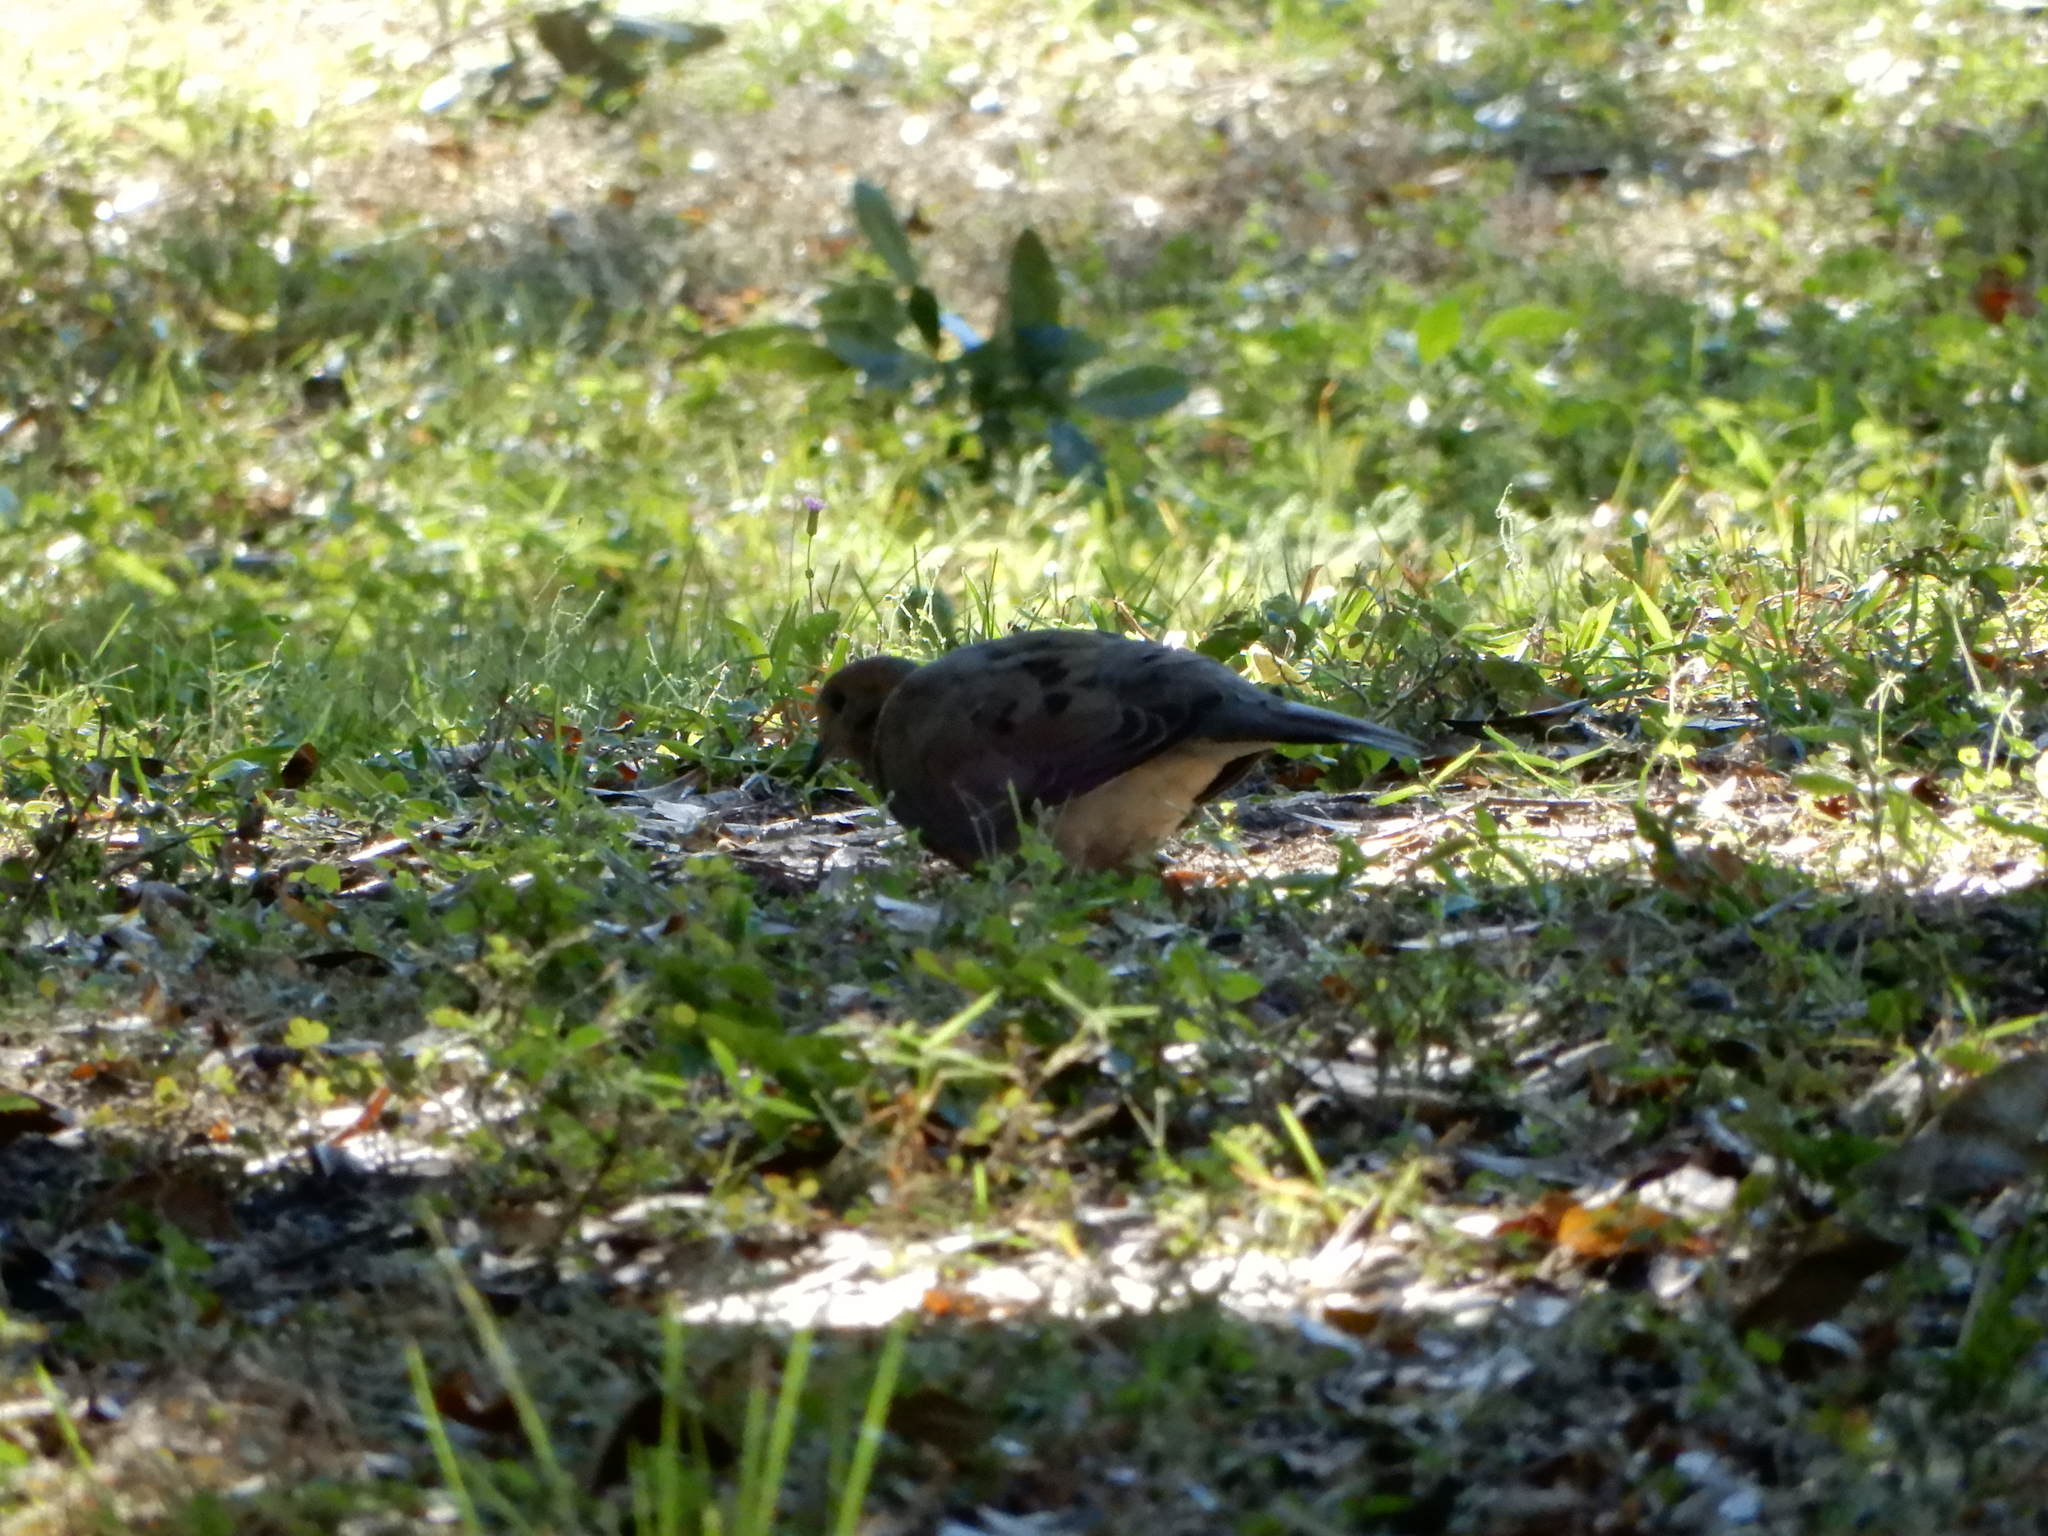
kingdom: Animalia
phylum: Chordata
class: Aves
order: Columbiformes
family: Columbidae
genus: Zenaida
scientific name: Zenaida macroura
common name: Mourning dove
